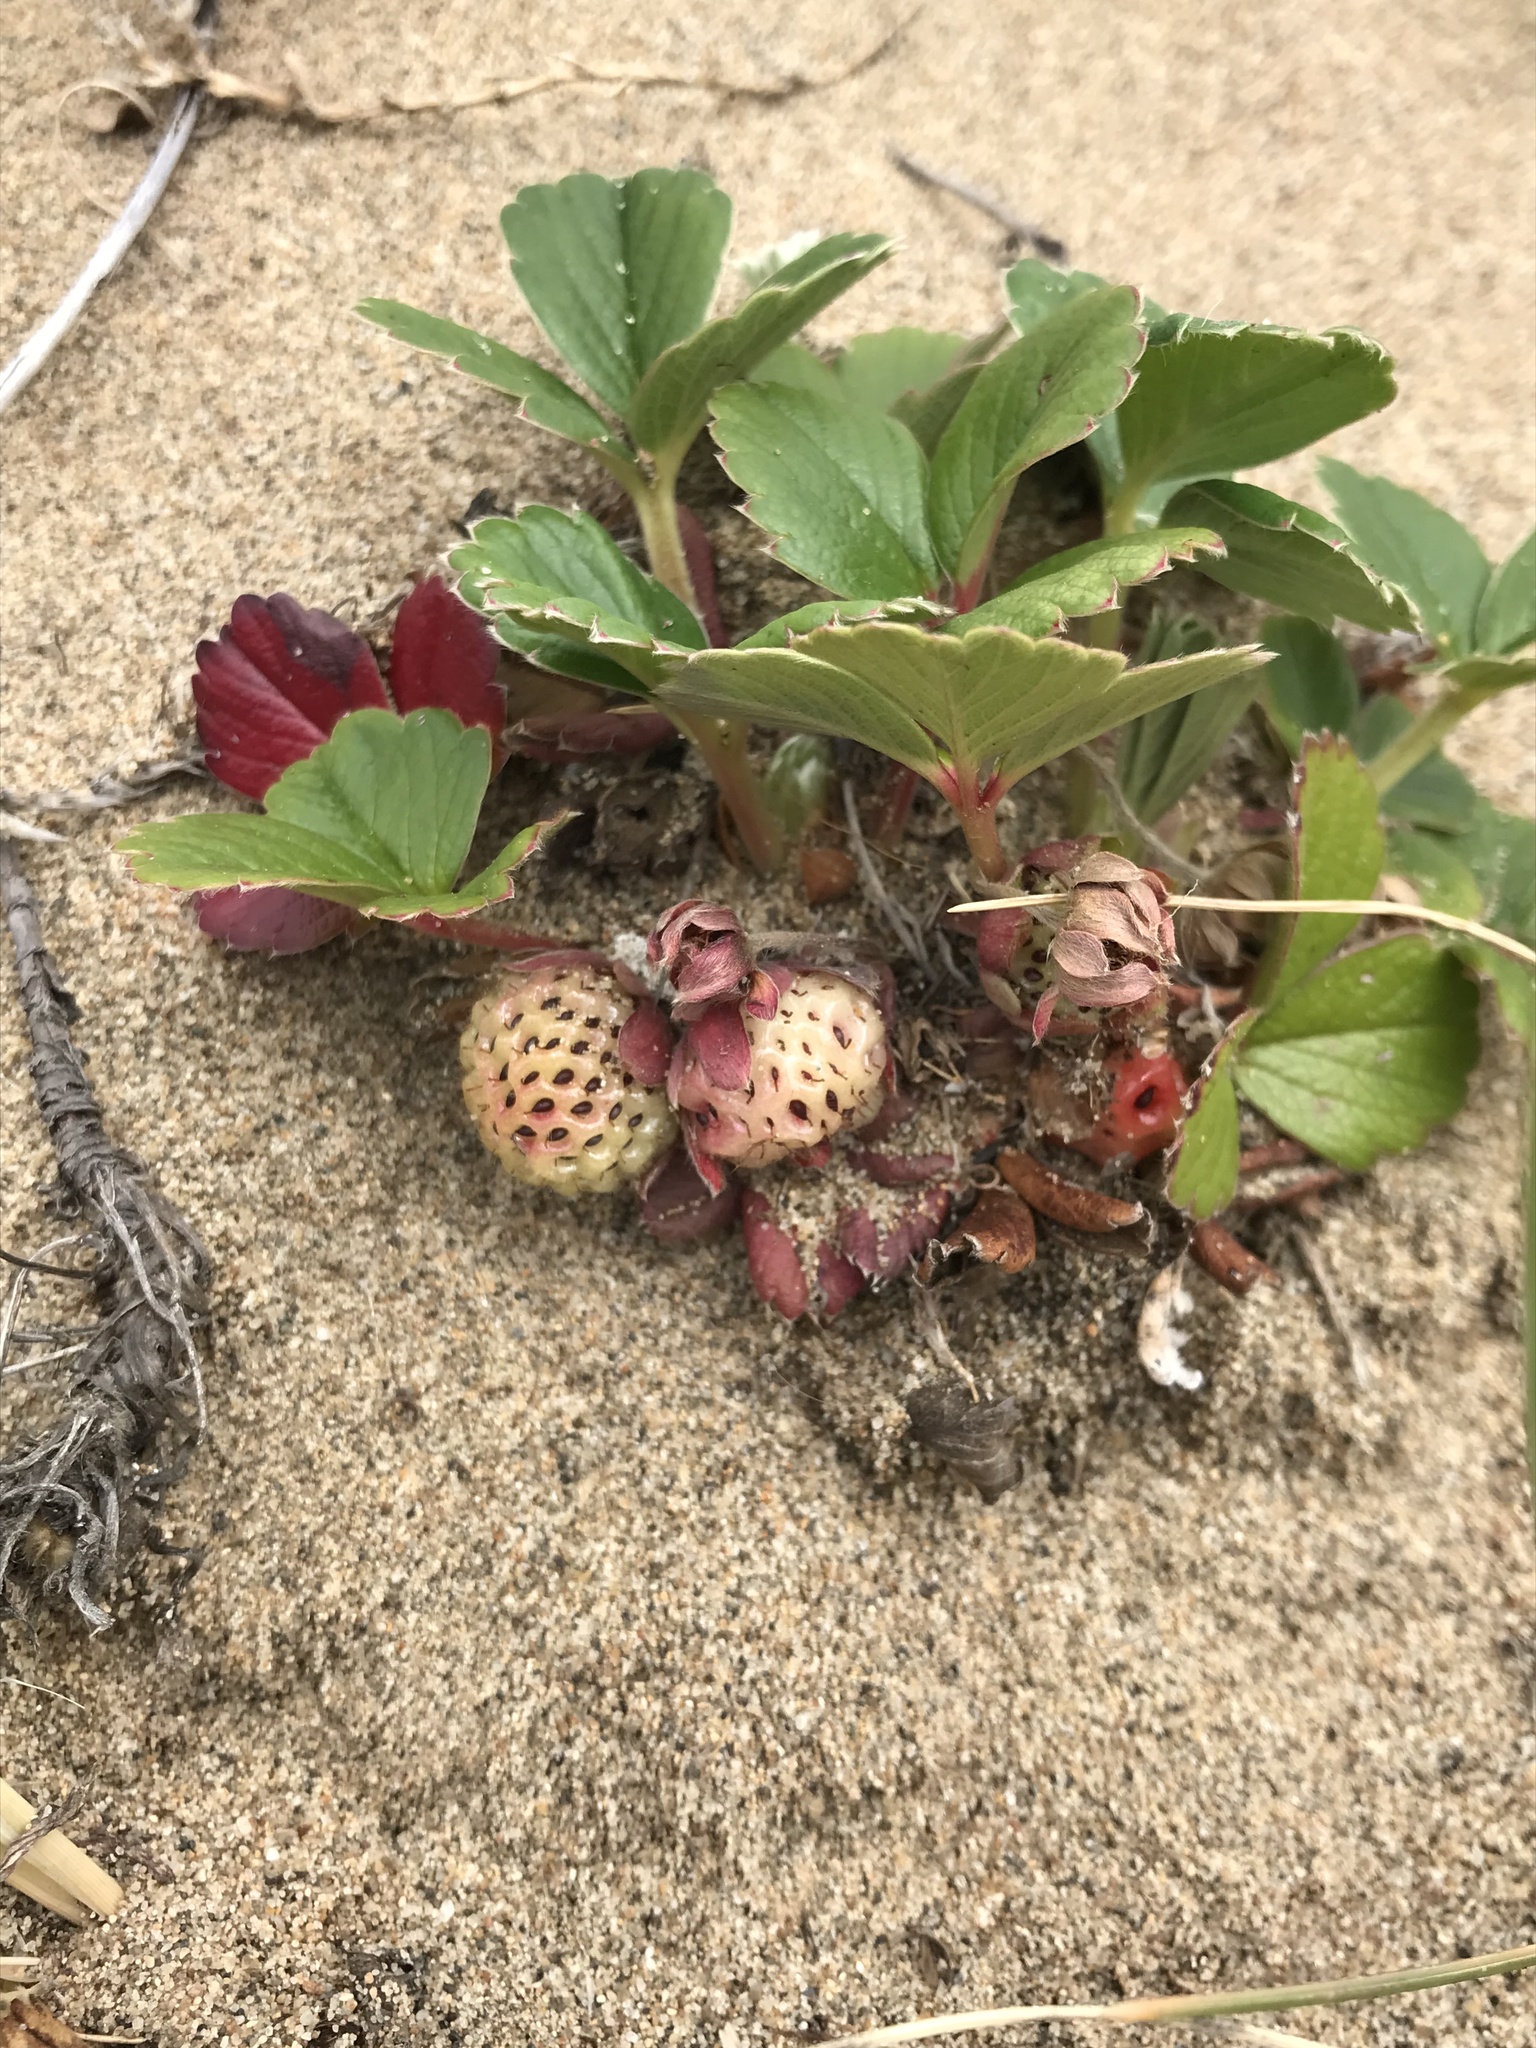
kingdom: Plantae
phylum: Tracheophyta
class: Magnoliopsida
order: Rosales
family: Rosaceae
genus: Fragaria
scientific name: Fragaria chiloensis
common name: Beach strawberry
